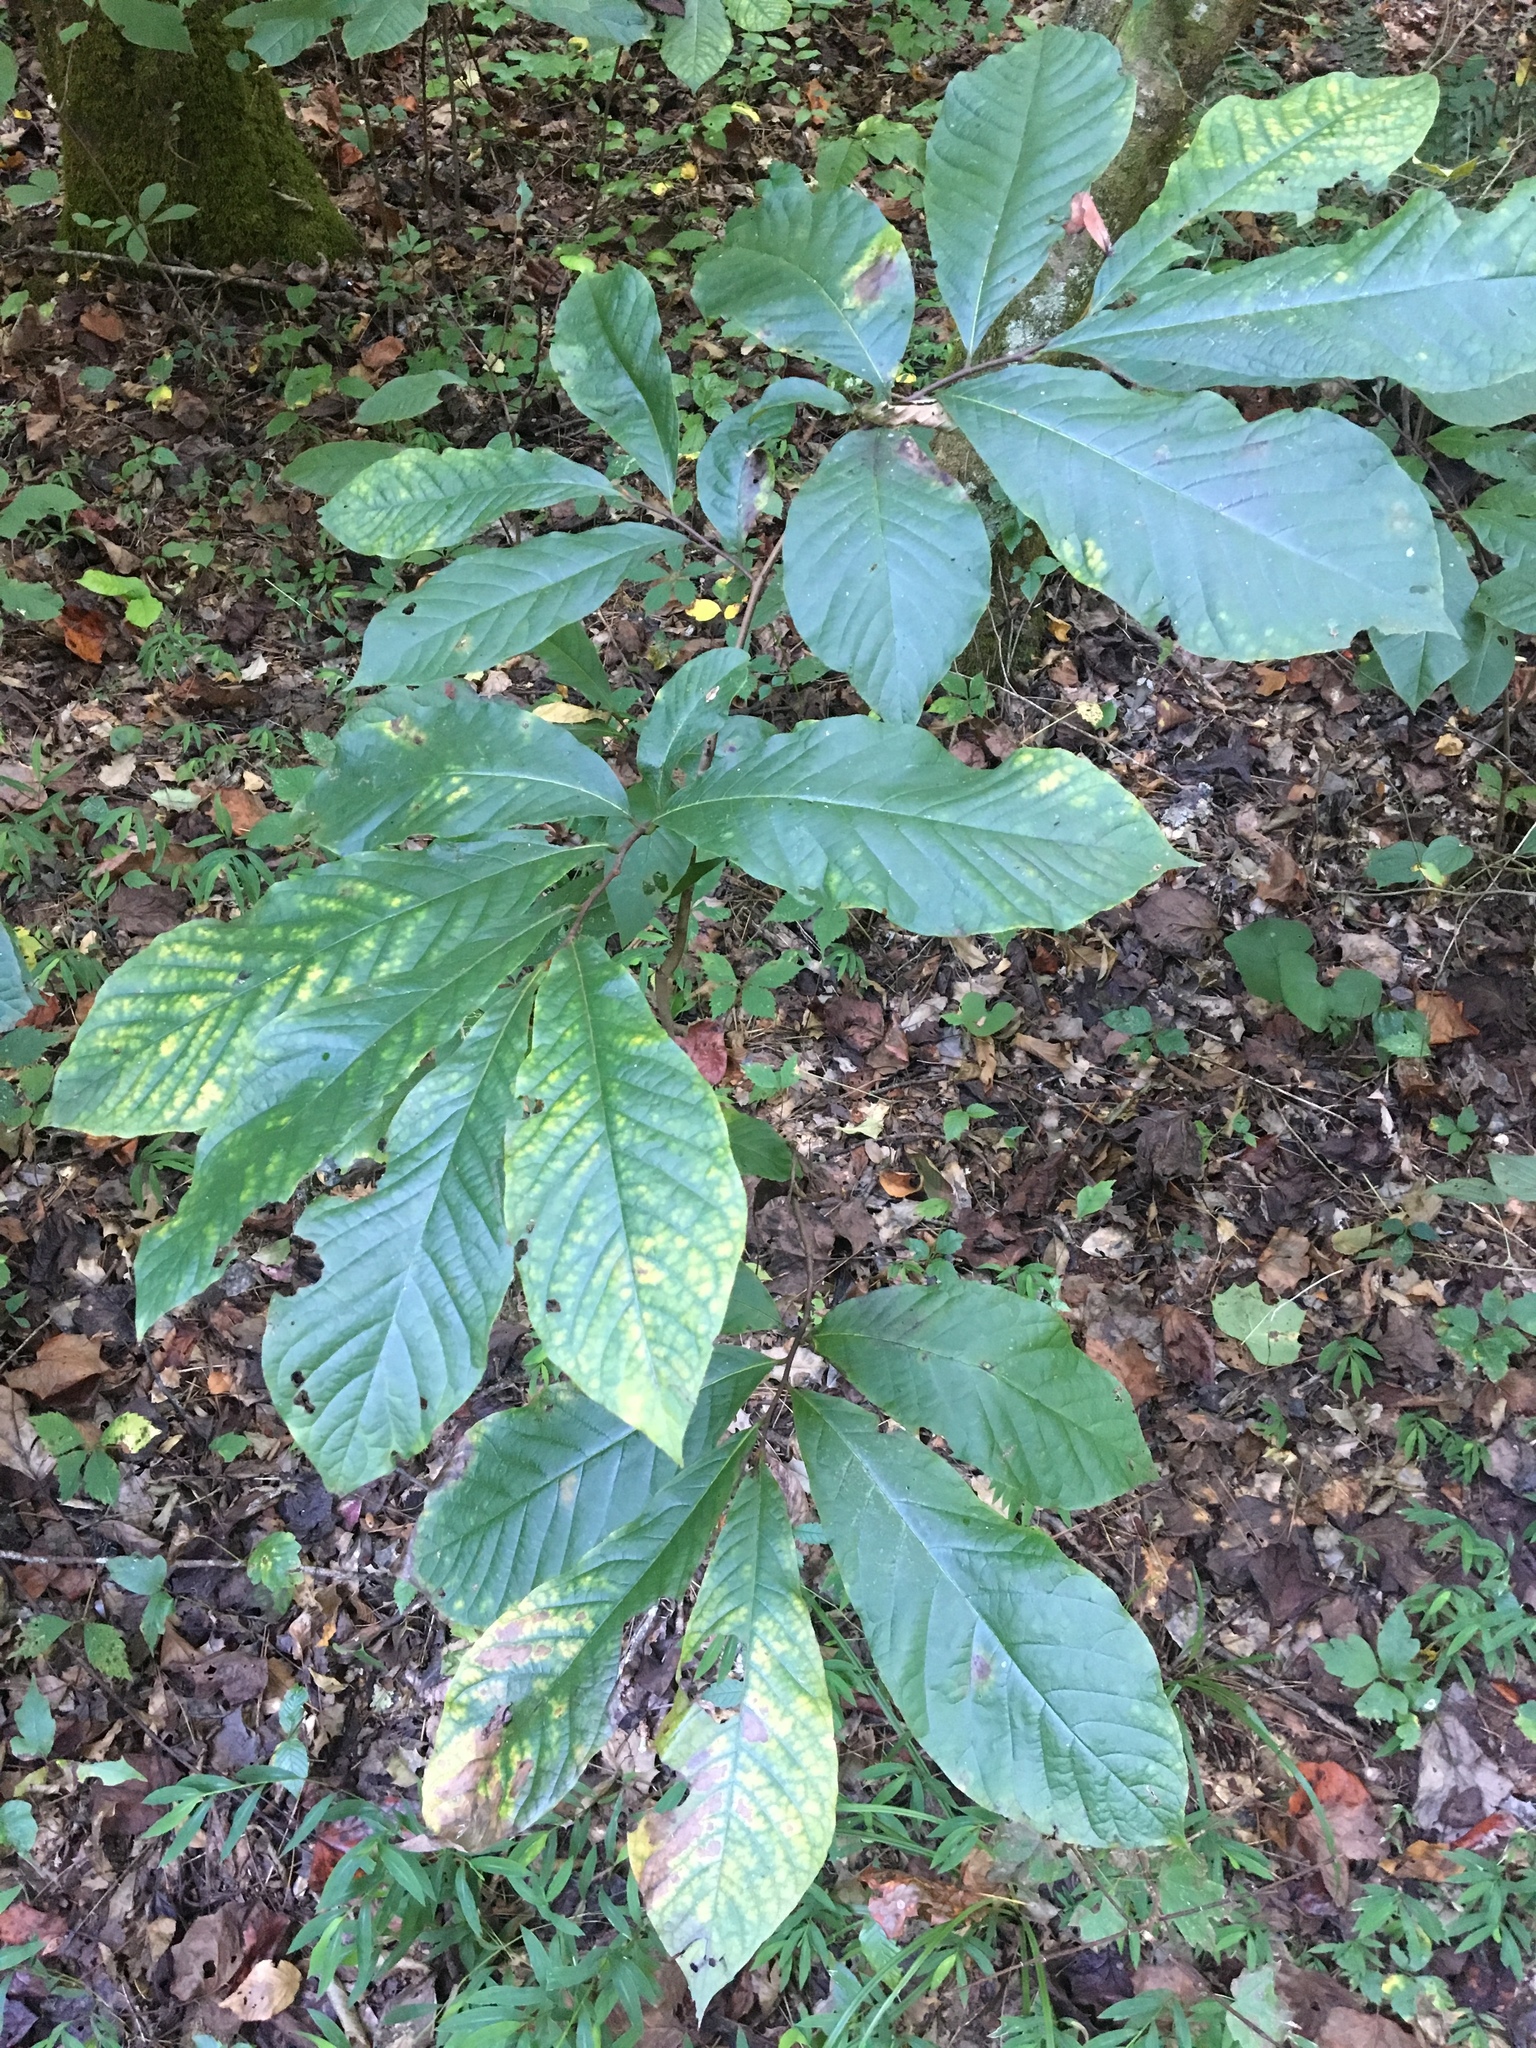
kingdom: Plantae
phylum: Tracheophyta
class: Magnoliopsida
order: Magnoliales
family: Annonaceae
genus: Asimina
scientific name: Asimina triloba
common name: Dog-banana
